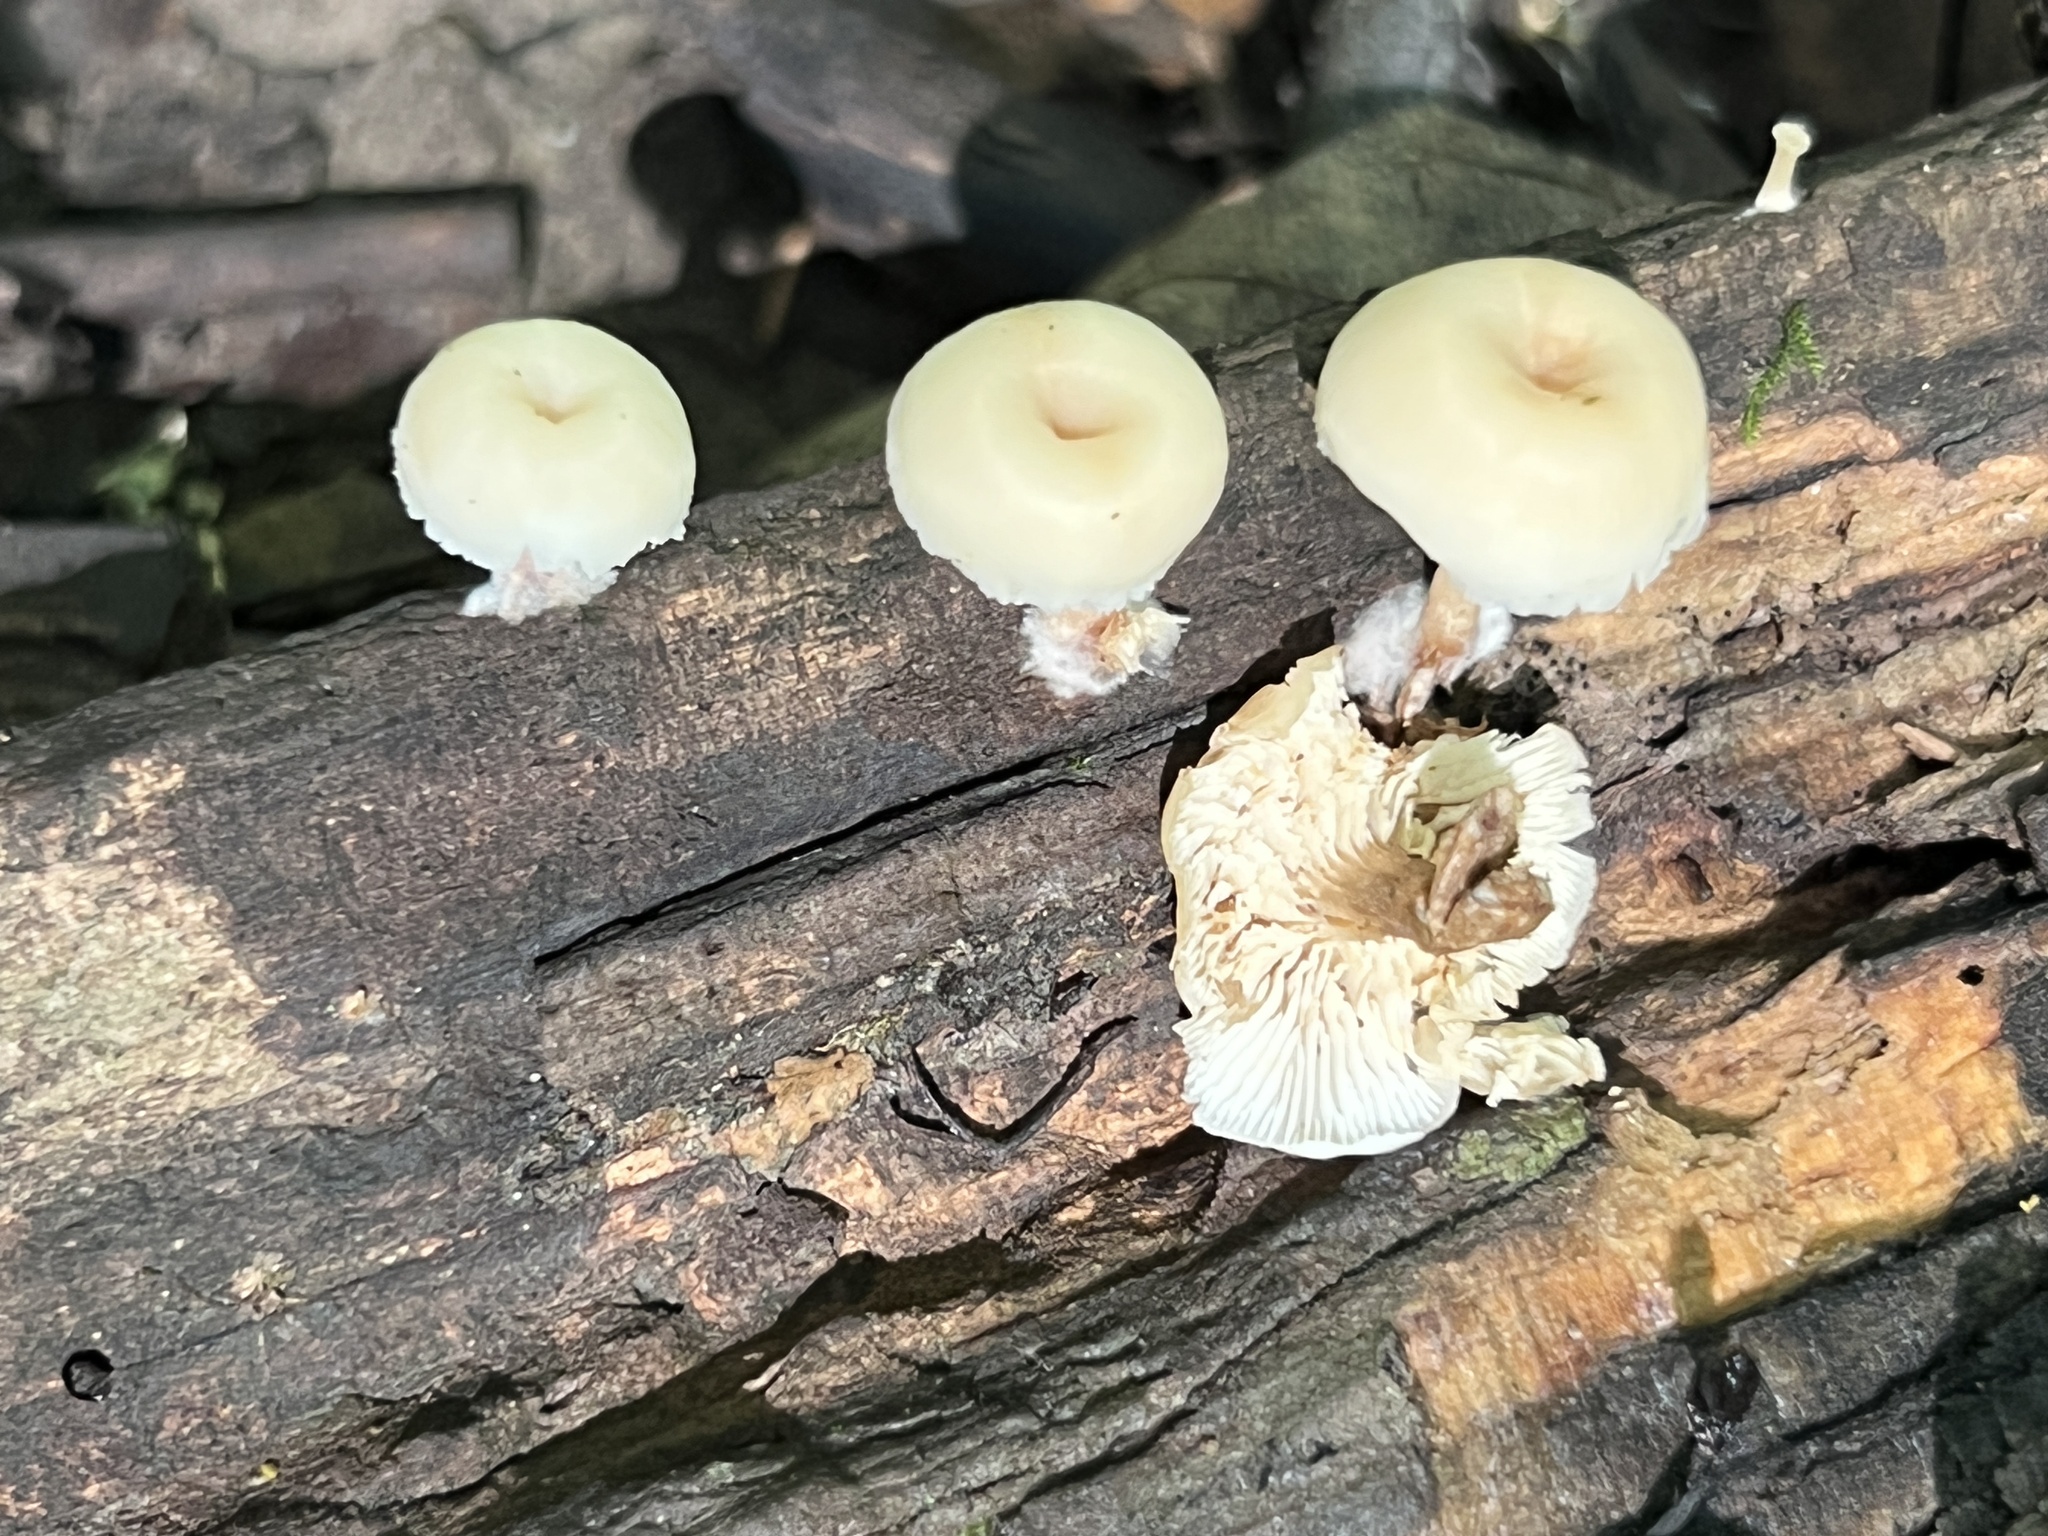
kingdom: Fungi
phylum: Basidiomycota
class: Agaricomycetes
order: Russulales
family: Auriscalpiaceae
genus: Lentinellus
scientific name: Lentinellus micheneri
